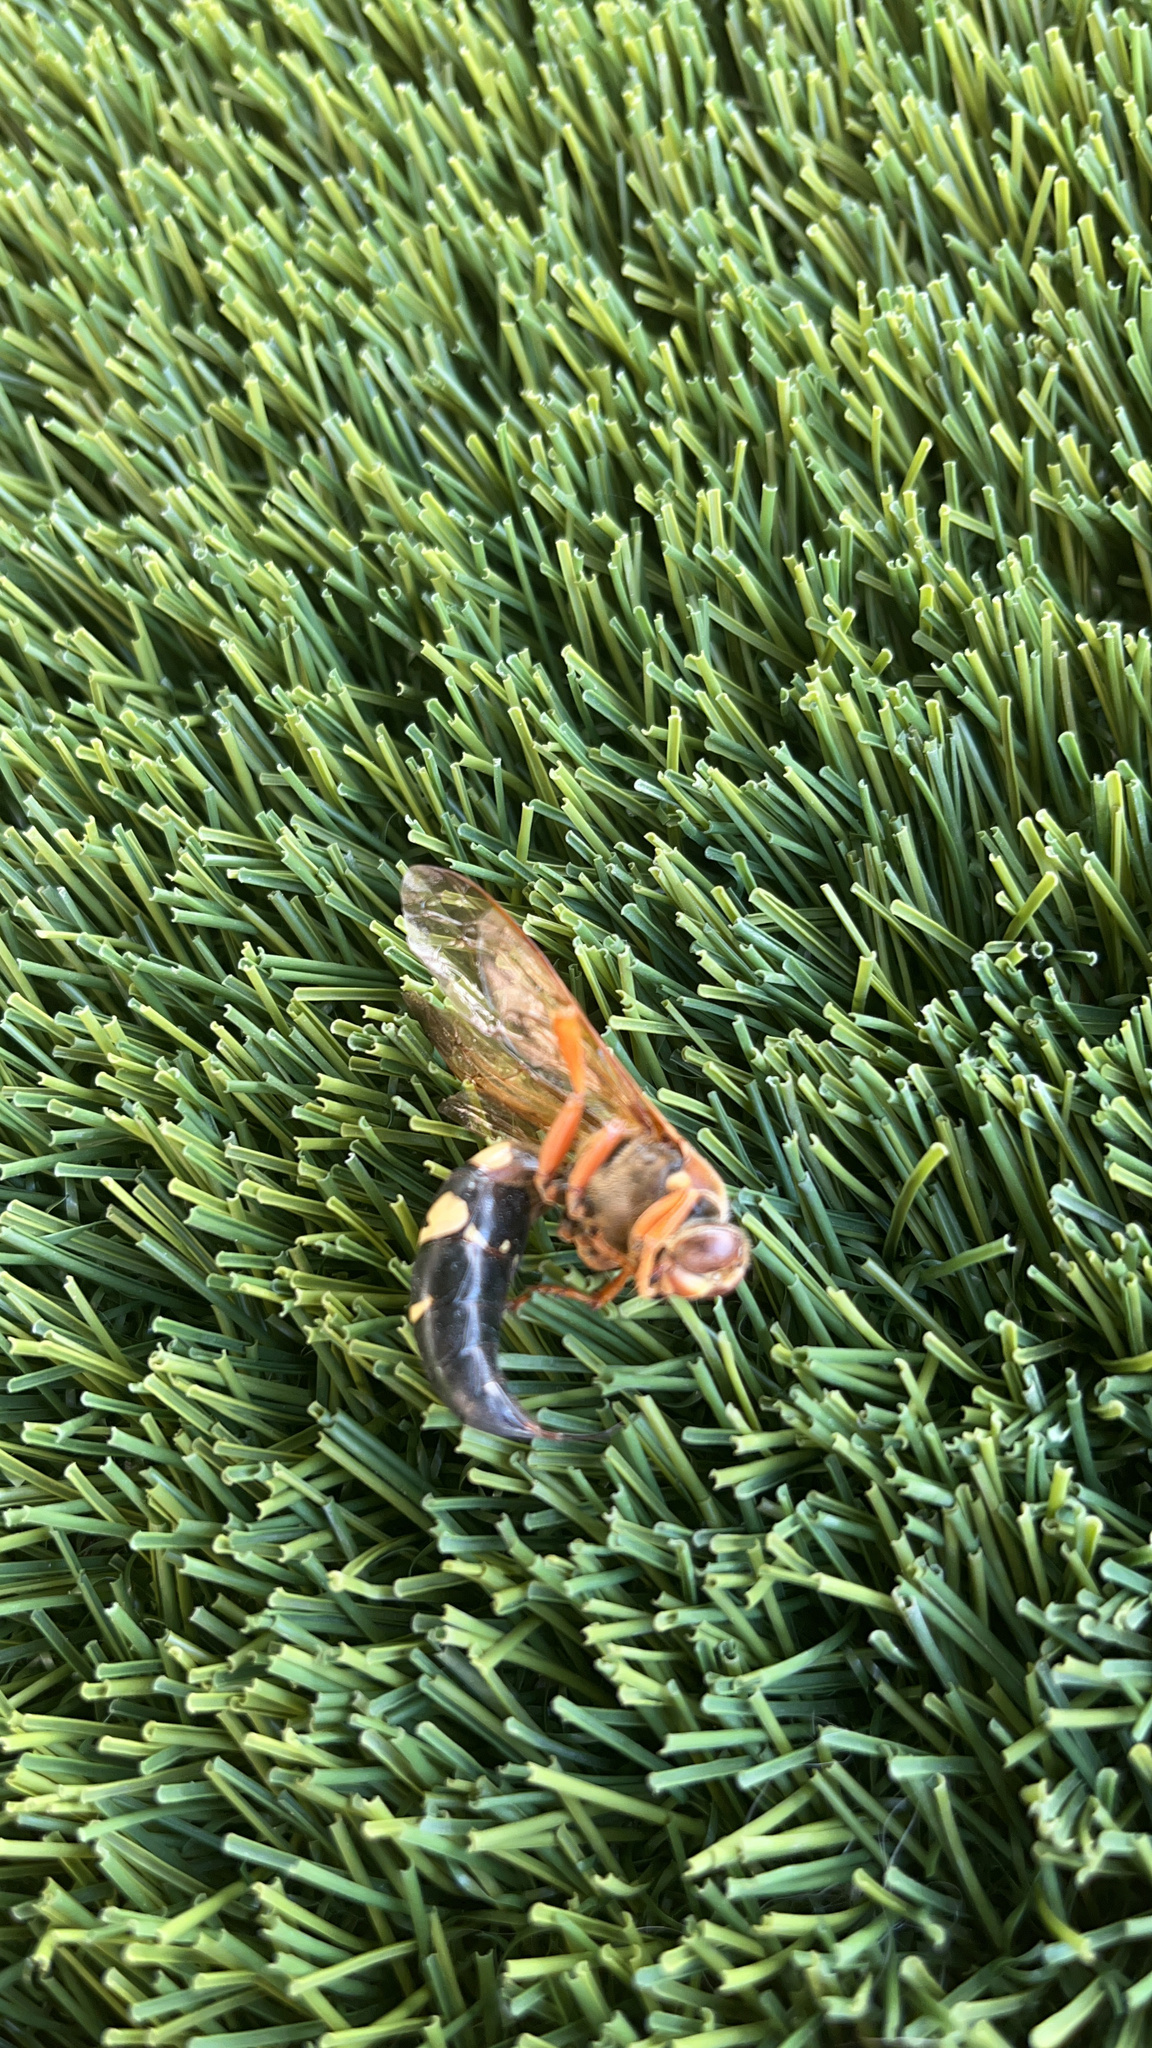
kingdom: Animalia
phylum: Arthropoda
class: Insecta
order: Hymenoptera
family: Crabronidae
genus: Sphecius
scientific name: Sphecius speciosus
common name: Cicada killer
